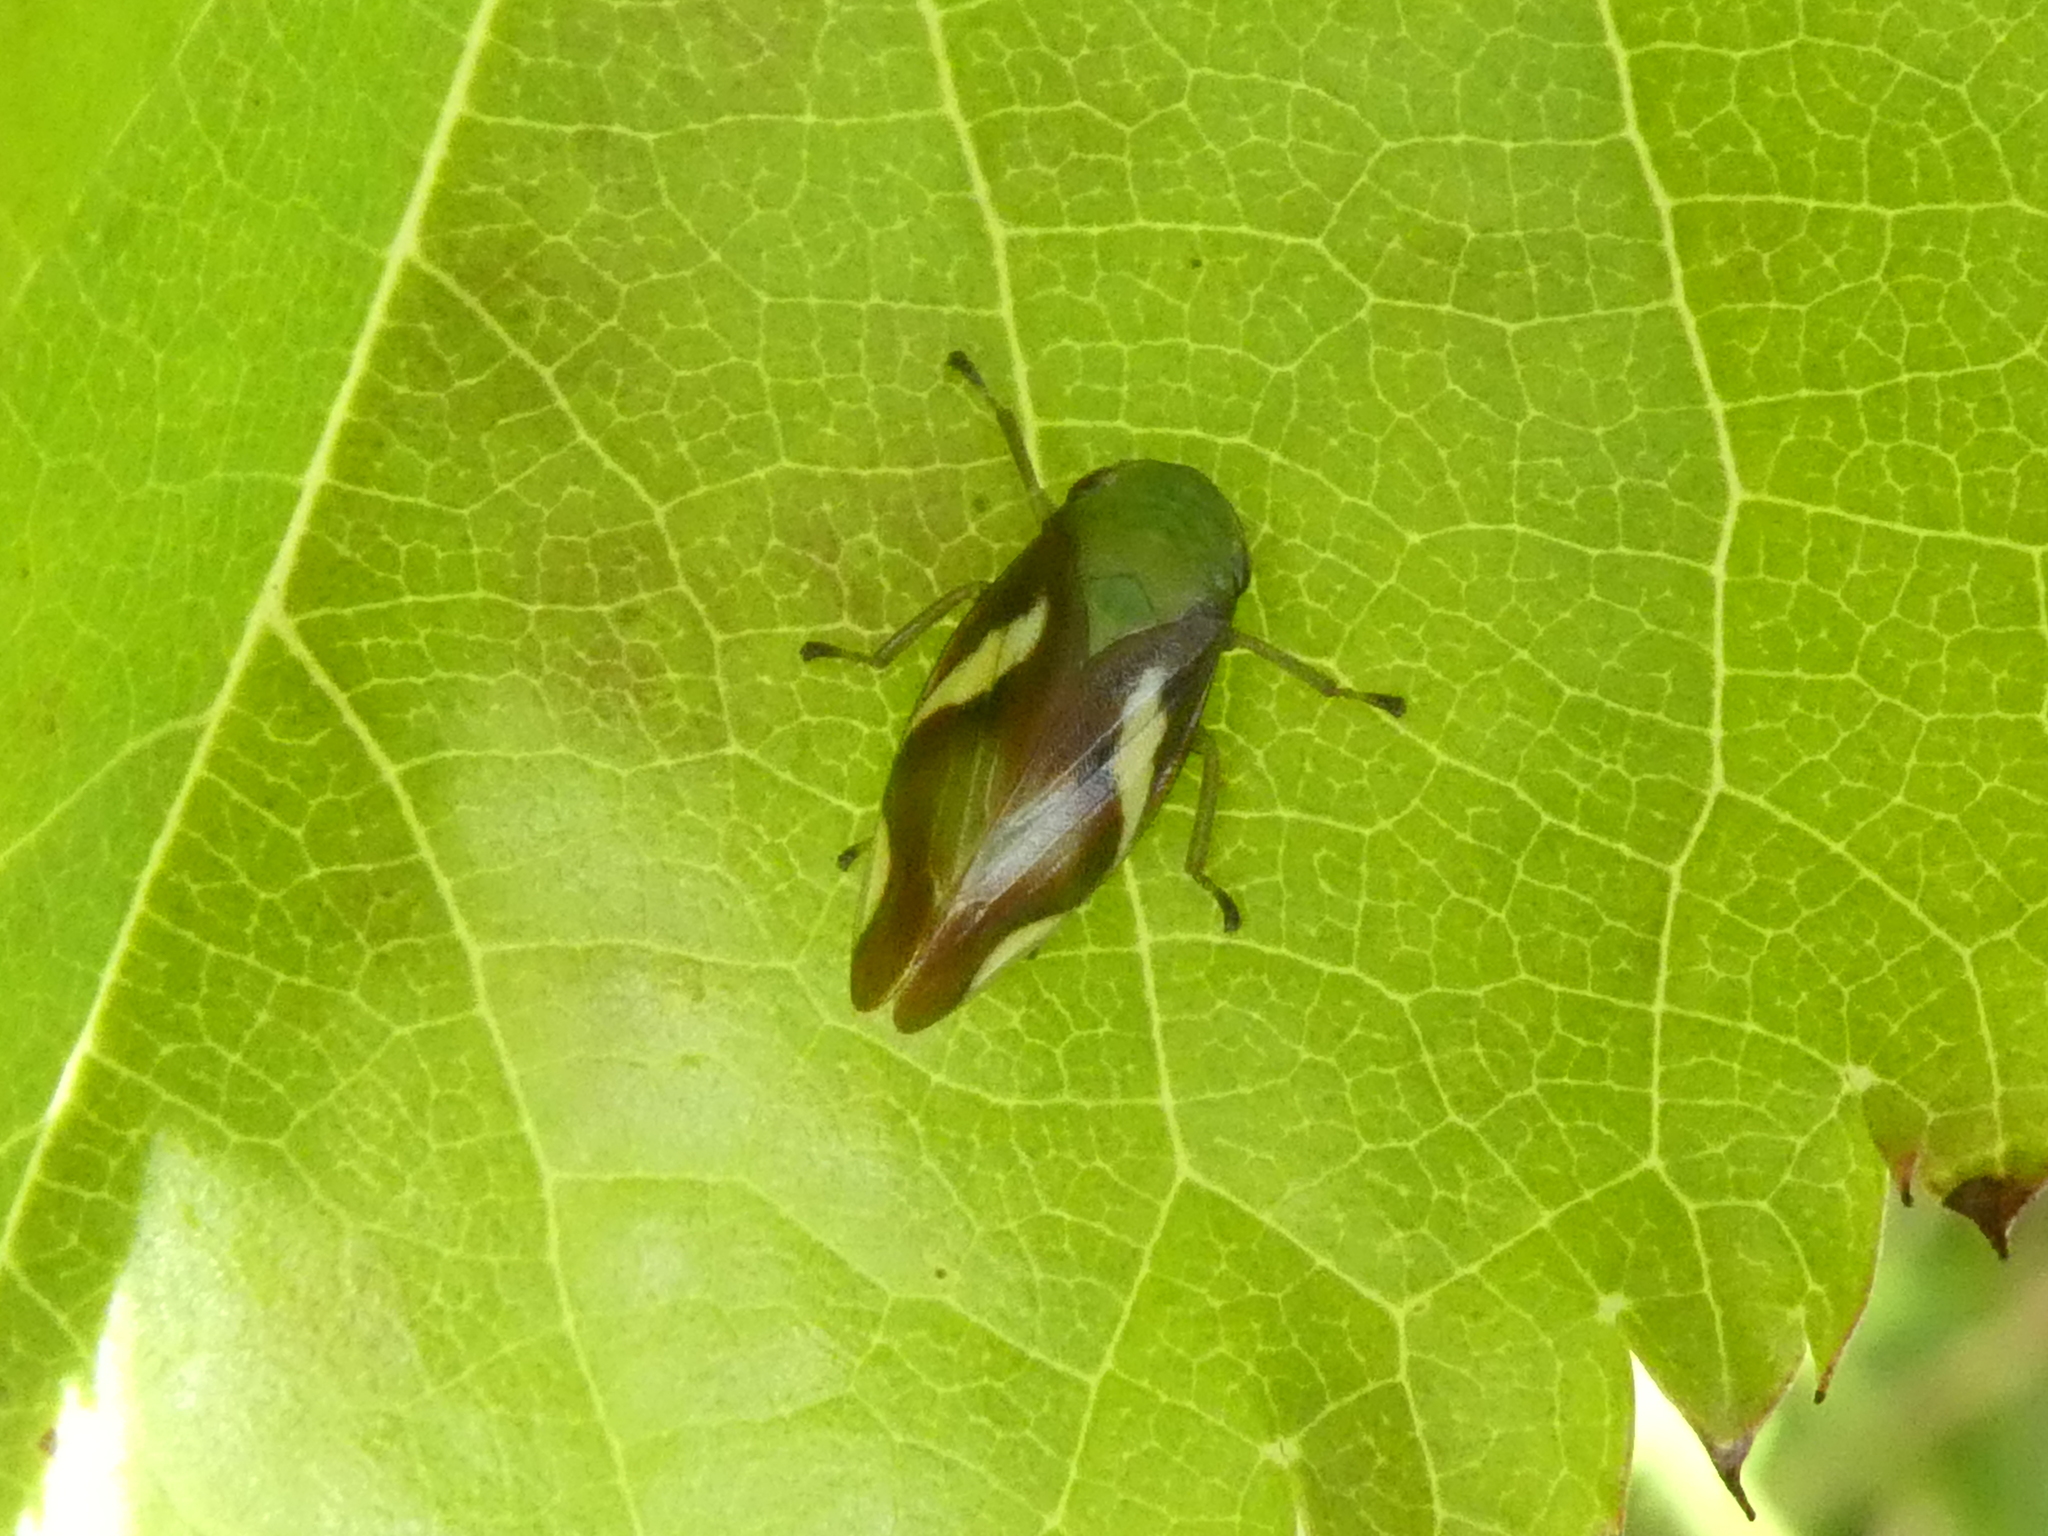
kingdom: Animalia
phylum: Arthropoda
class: Insecta
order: Hemiptera
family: Aphrophoridae
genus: Carystoterpa
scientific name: Carystoterpa fingens
